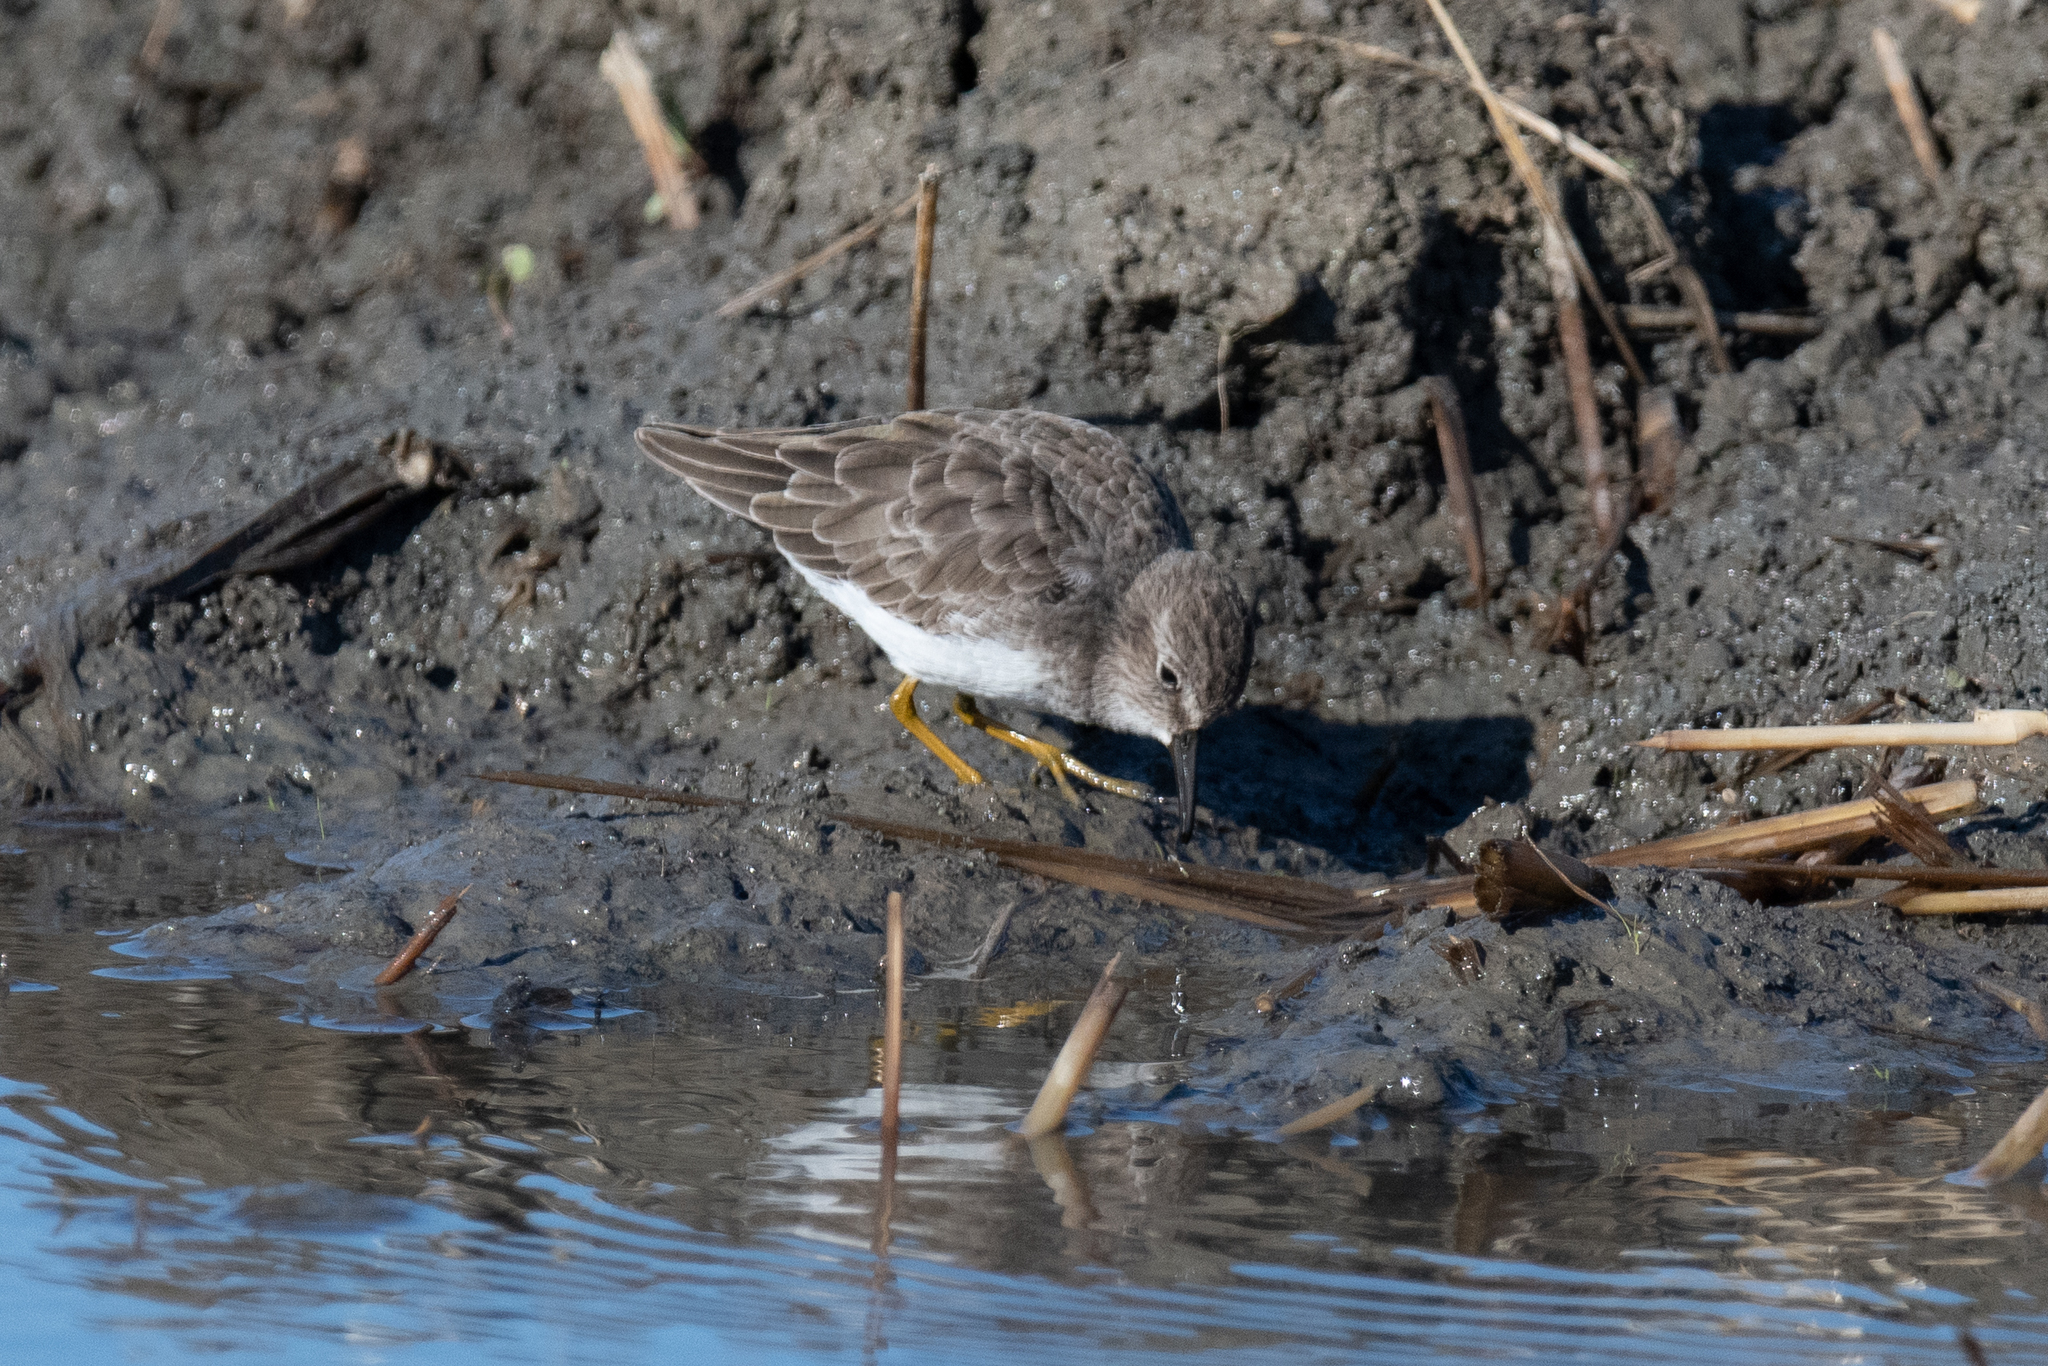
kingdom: Animalia
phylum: Chordata
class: Aves
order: Charadriiformes
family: Scolopacidae
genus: Calidris
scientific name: Calidris minutilla
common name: Least sandpiper
